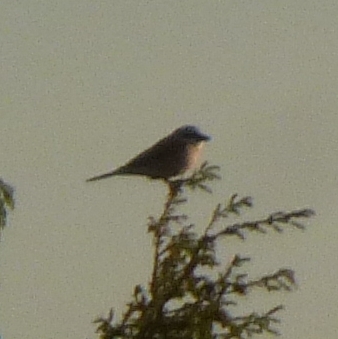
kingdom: Animalia
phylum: Chordata
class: Aves
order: Passeriformes
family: Laniidae
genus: Lanius
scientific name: Lanius collurio
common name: Red-backed shrike
